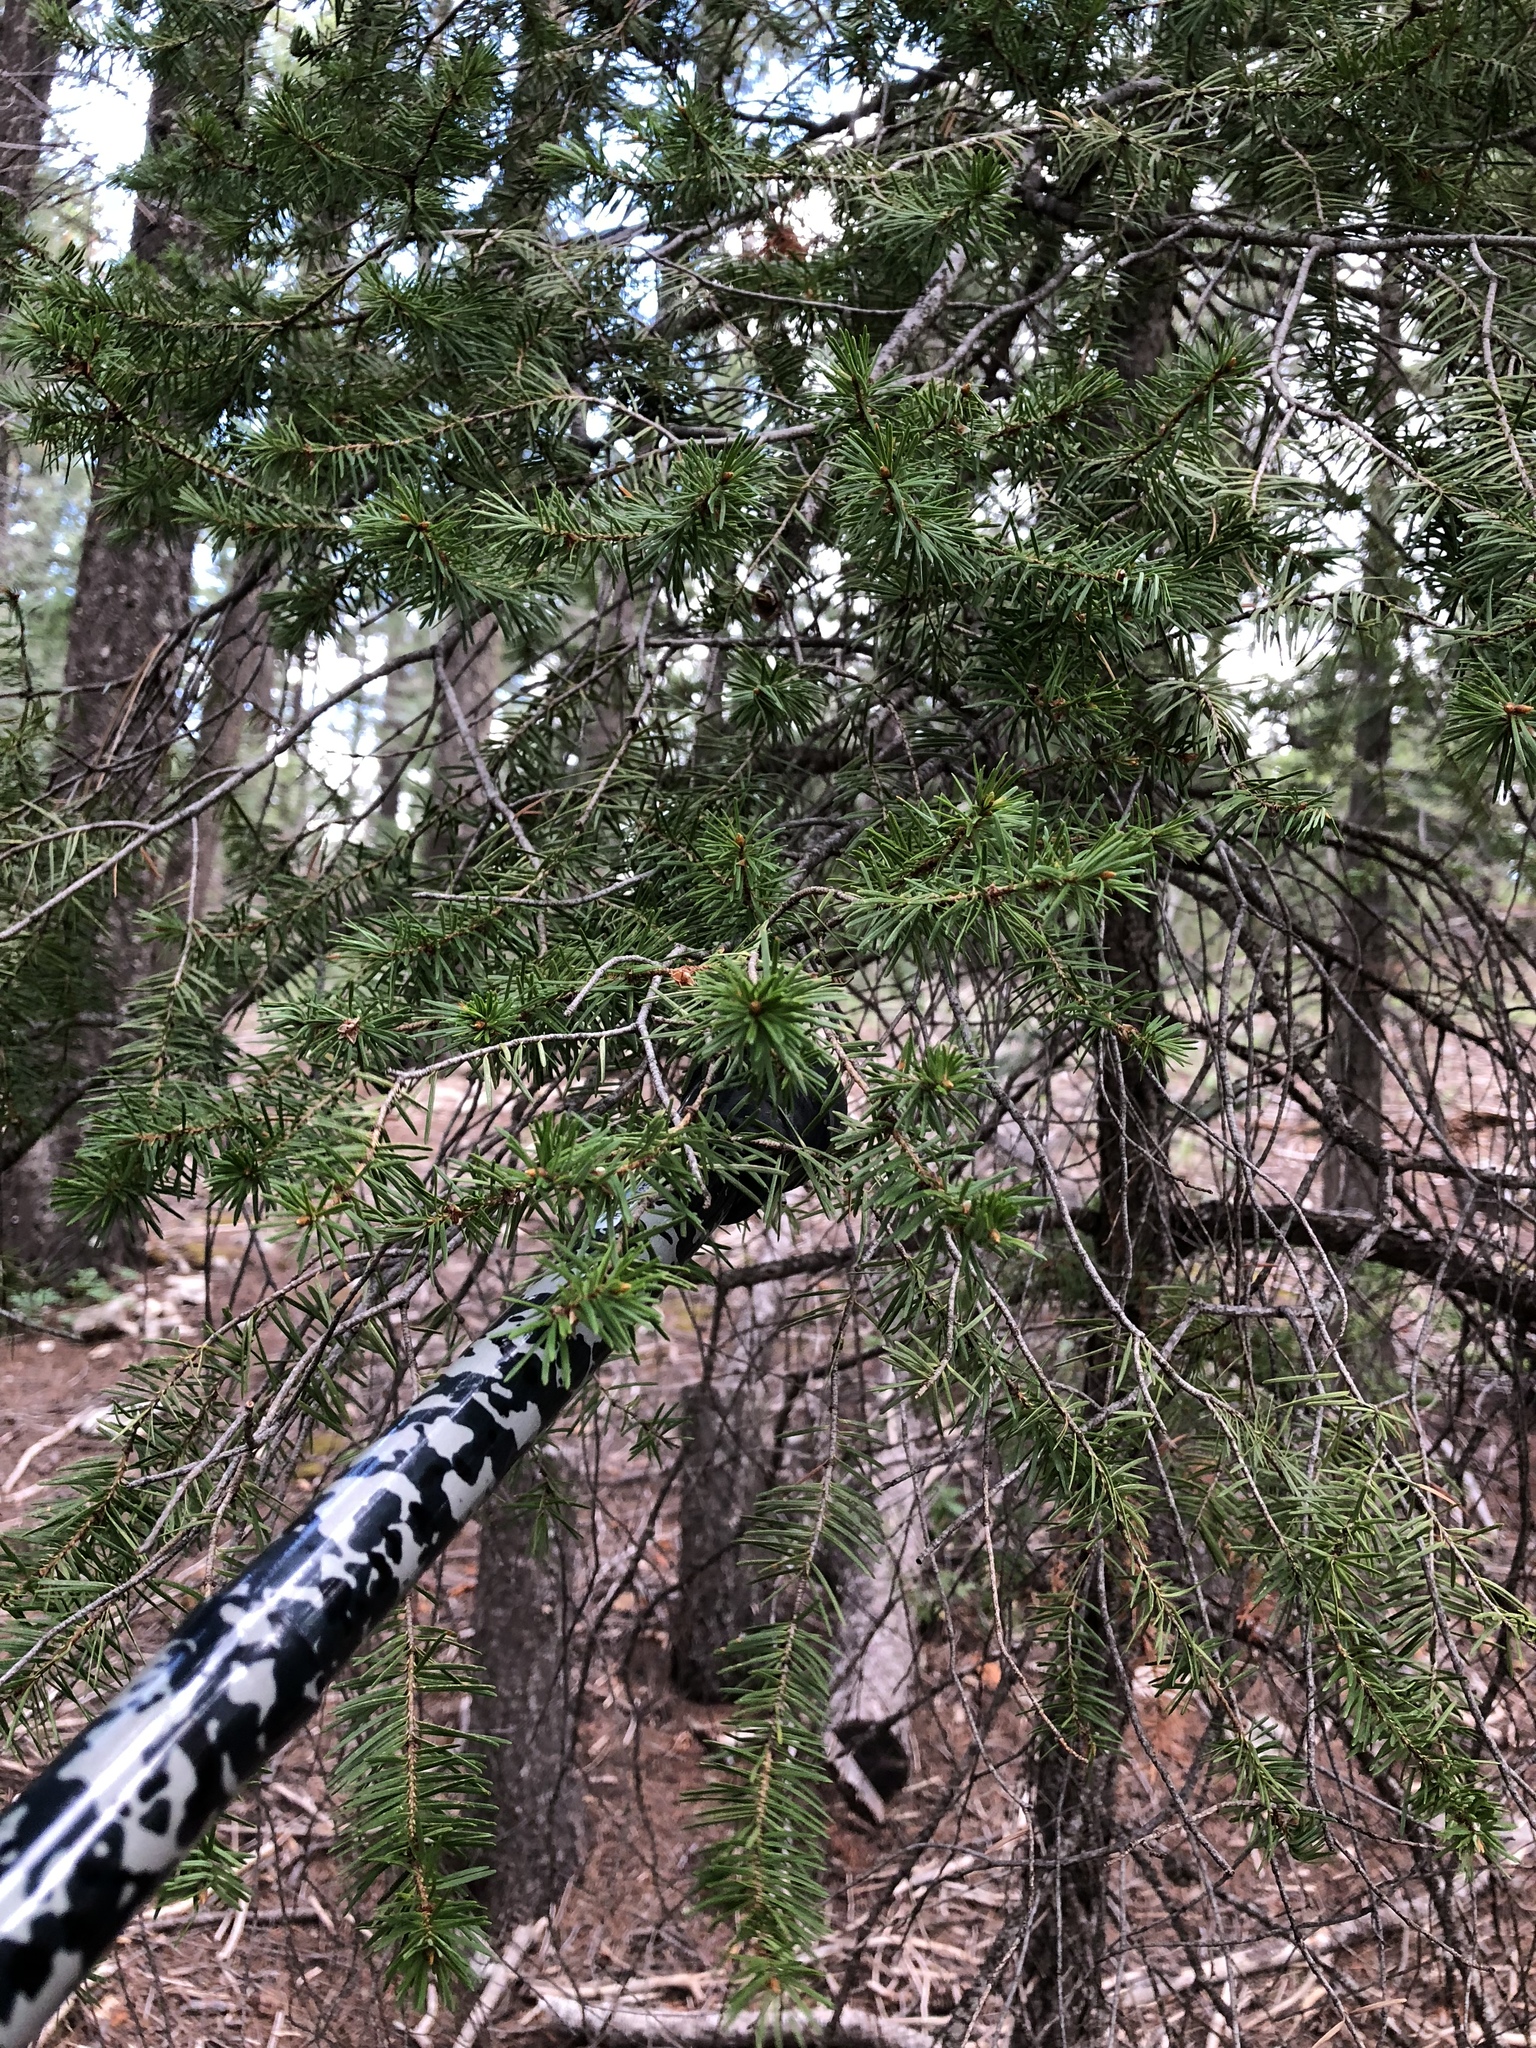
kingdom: Plantae
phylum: Tracheophyta
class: Pinopsida
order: Pinales
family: Pinaceae
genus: Pseudotsuga
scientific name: Pseudotsuga menziesii
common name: Douglas fir
